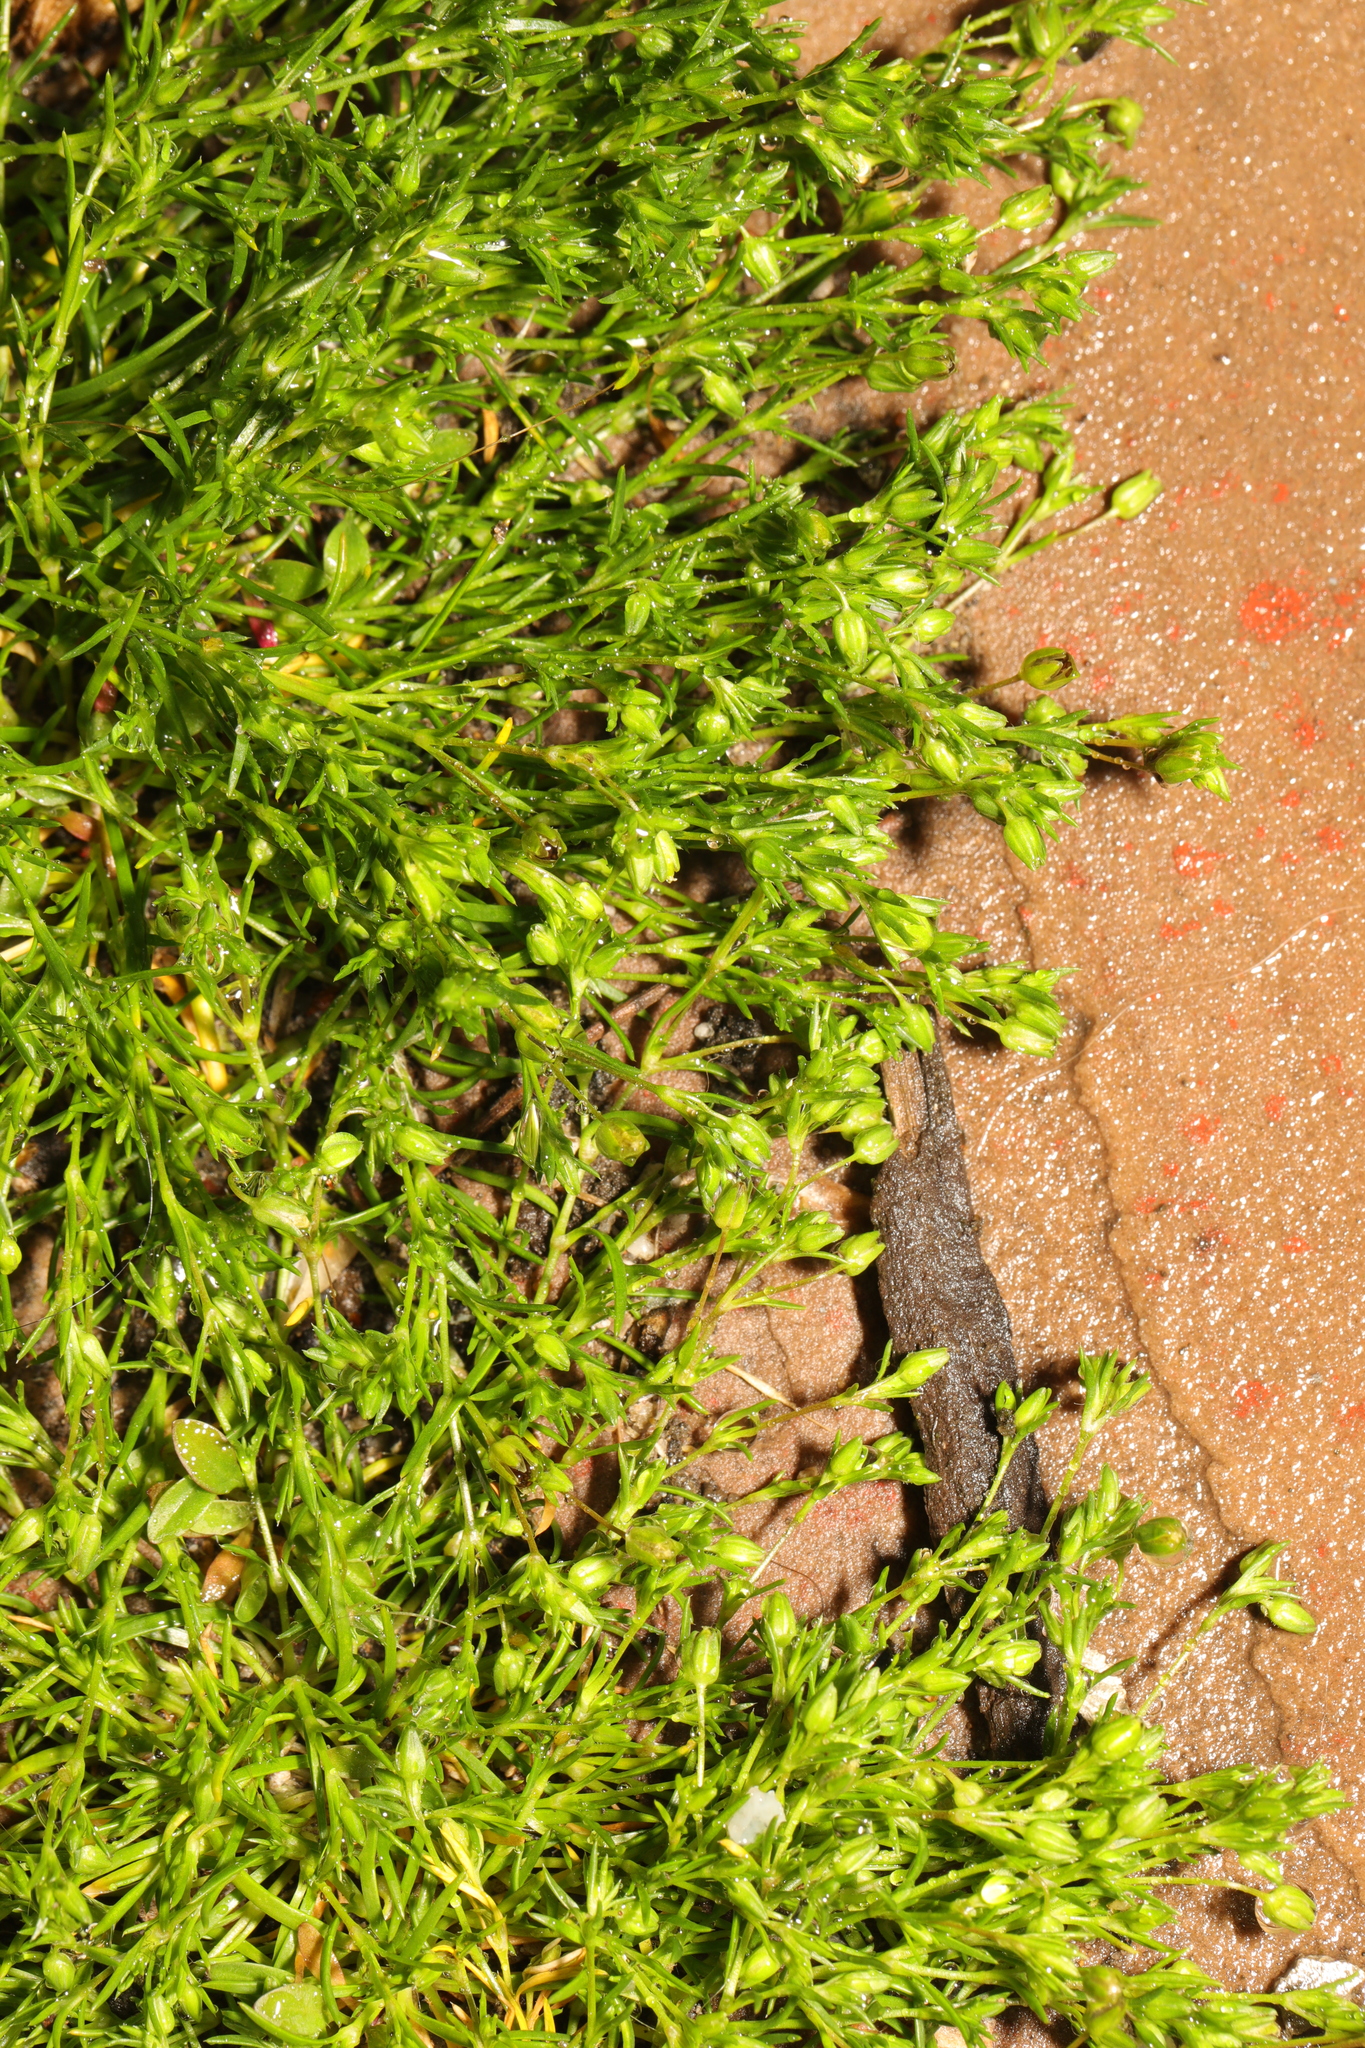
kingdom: Plantae
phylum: Tracheophyta
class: Magnoliopsida
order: Caryophyllales
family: Caryophyllaceae
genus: Sagina
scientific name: Sagina procumbens
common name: Procumbent pearlwort
